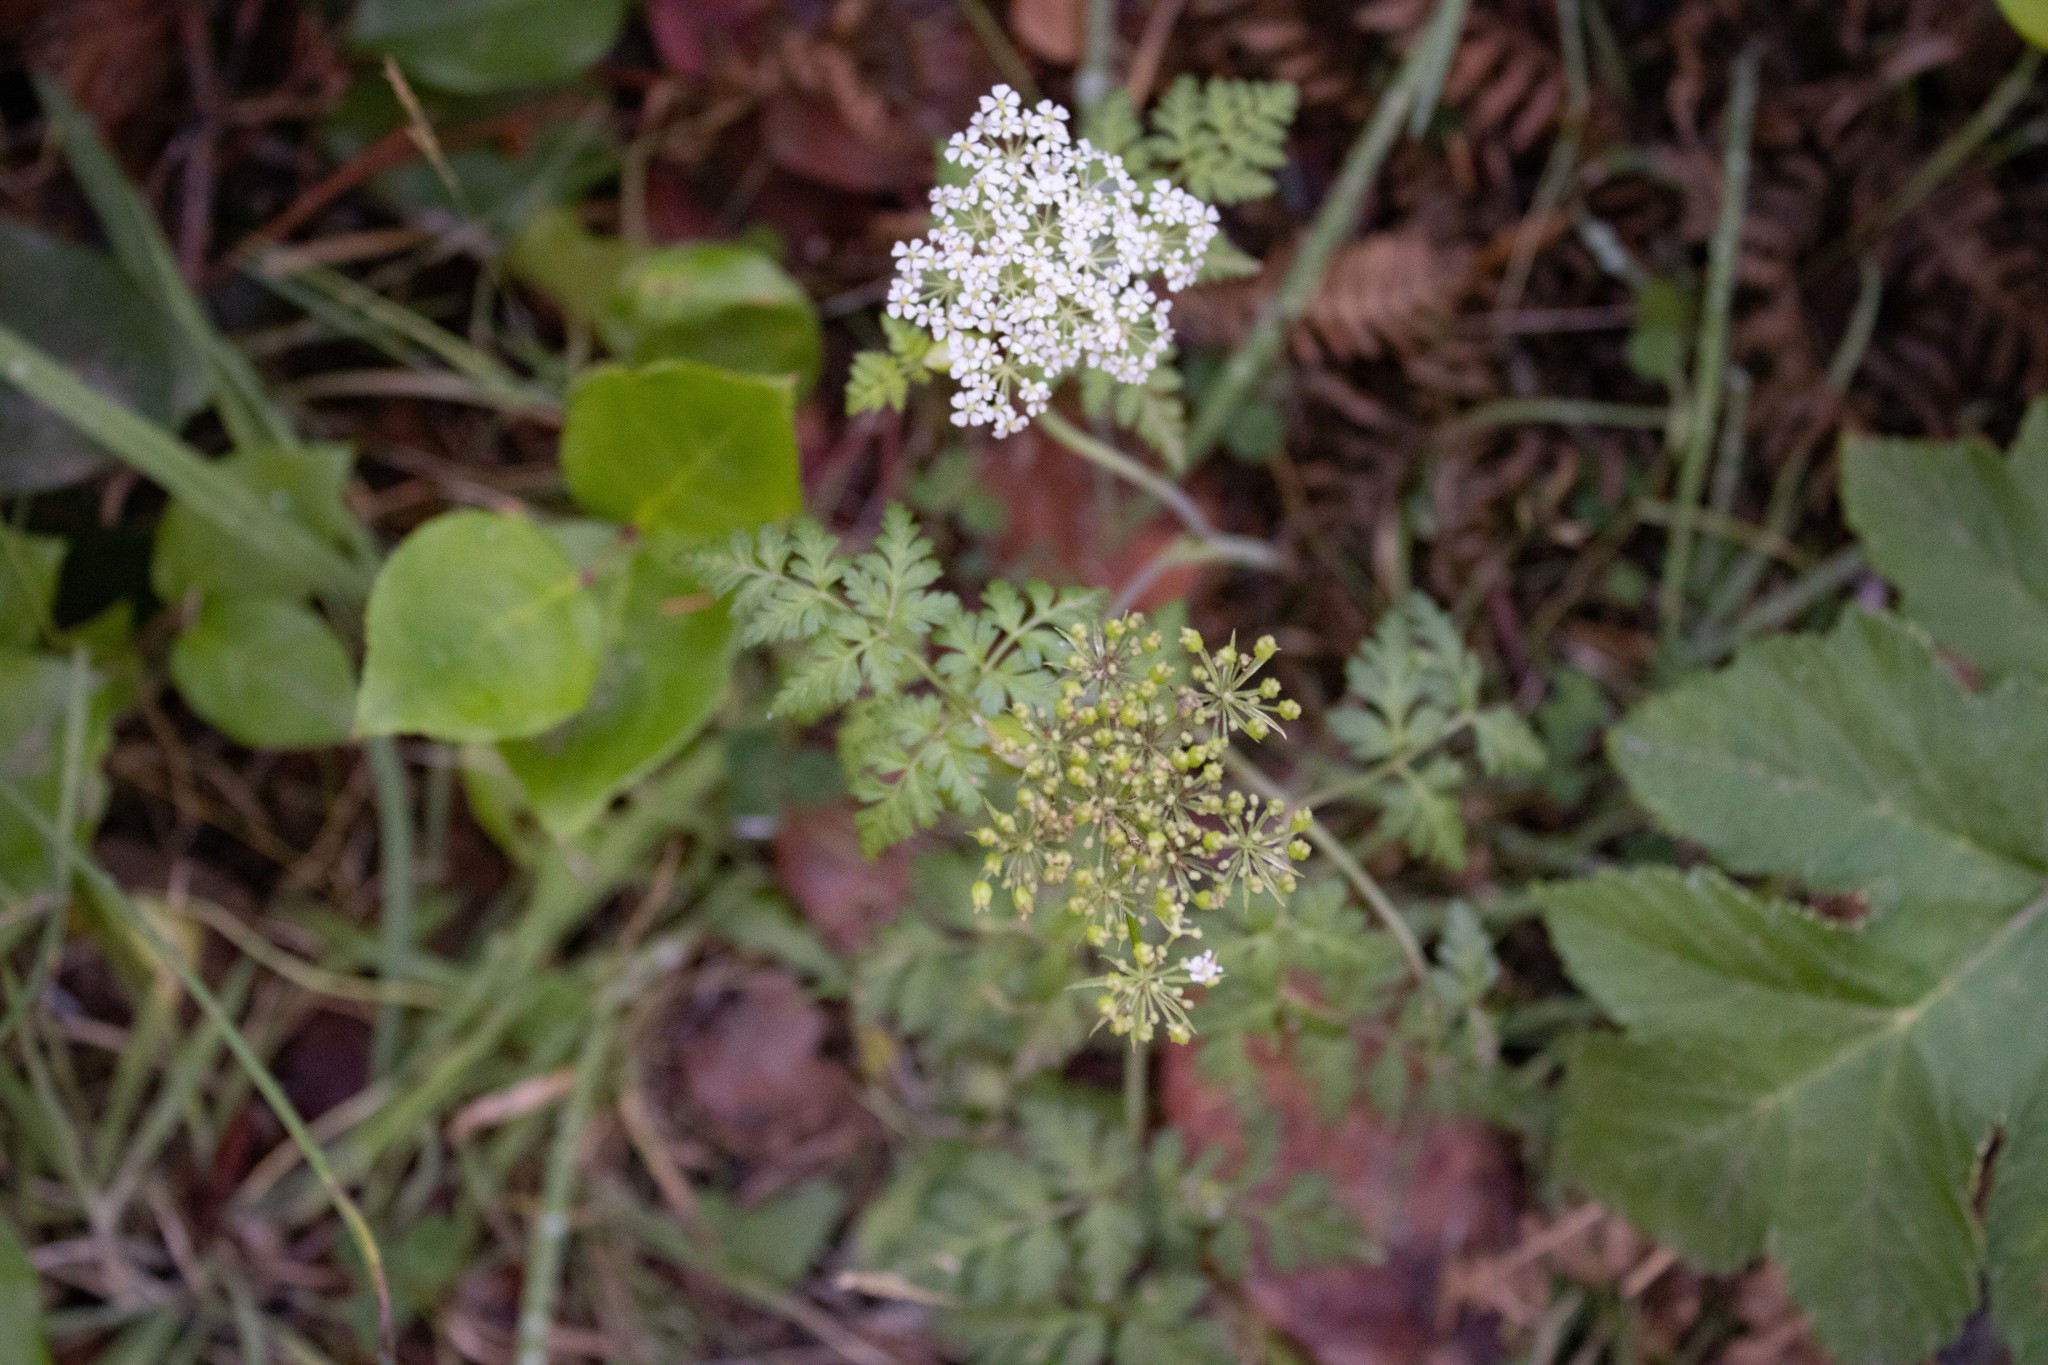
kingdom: Plantae
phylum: Tracheophyta
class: Magnoliopsida
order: Apiales
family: Apiaceae
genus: Oenanthe
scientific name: Oenanthe sarmentosa
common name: American water-parsley
